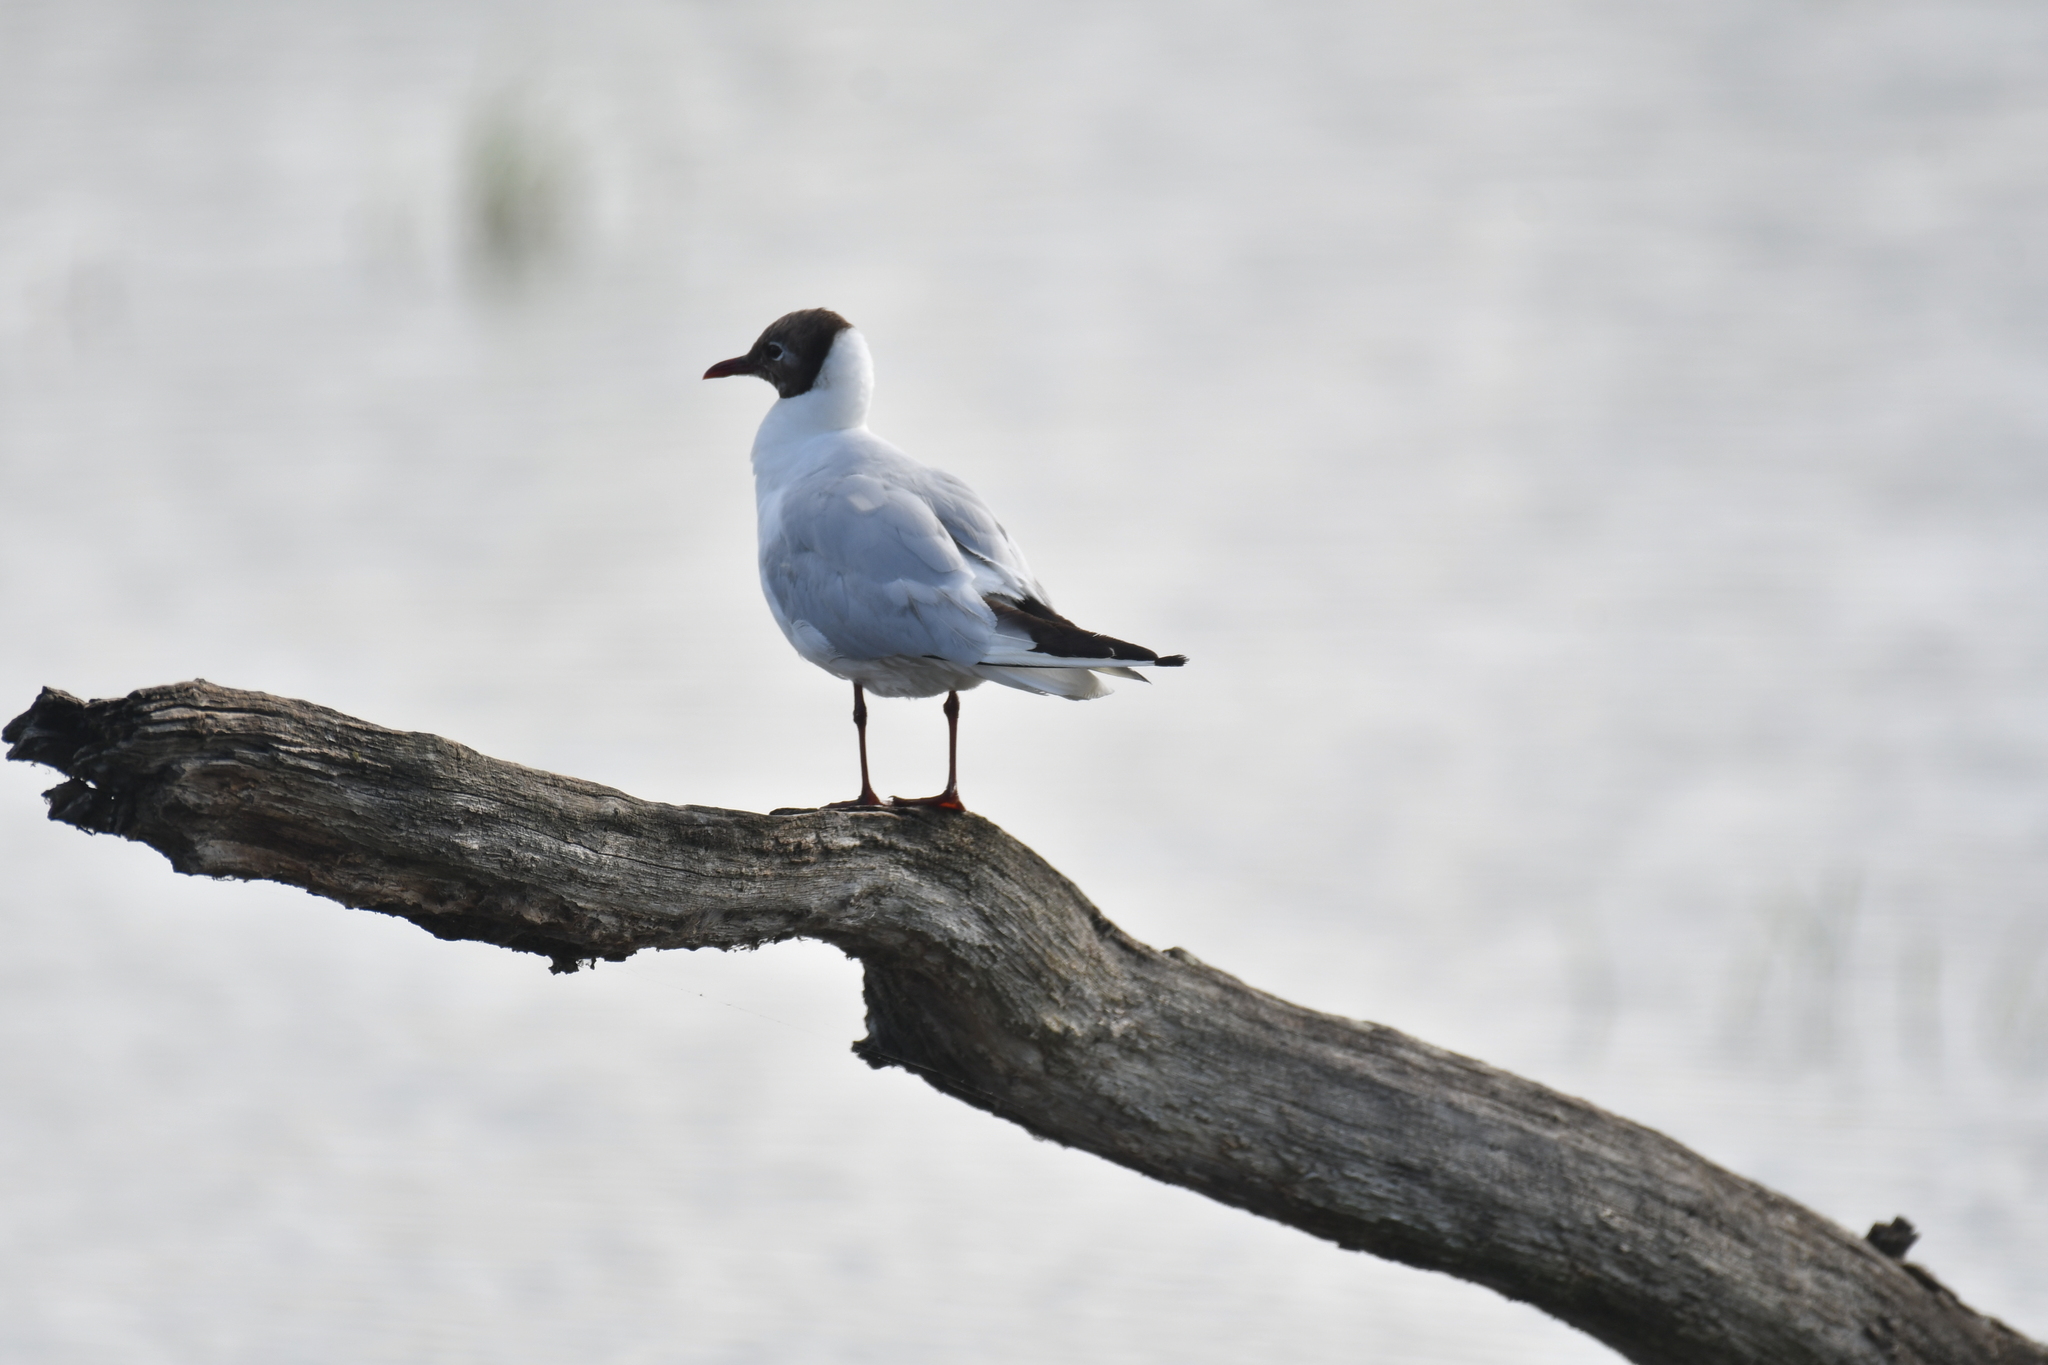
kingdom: Animalia
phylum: Chordata
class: Aves
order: Charadriiformes
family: Laridae
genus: Chroicocephalus
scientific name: Chroicocephalus ridibundus
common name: Black-headed gull
